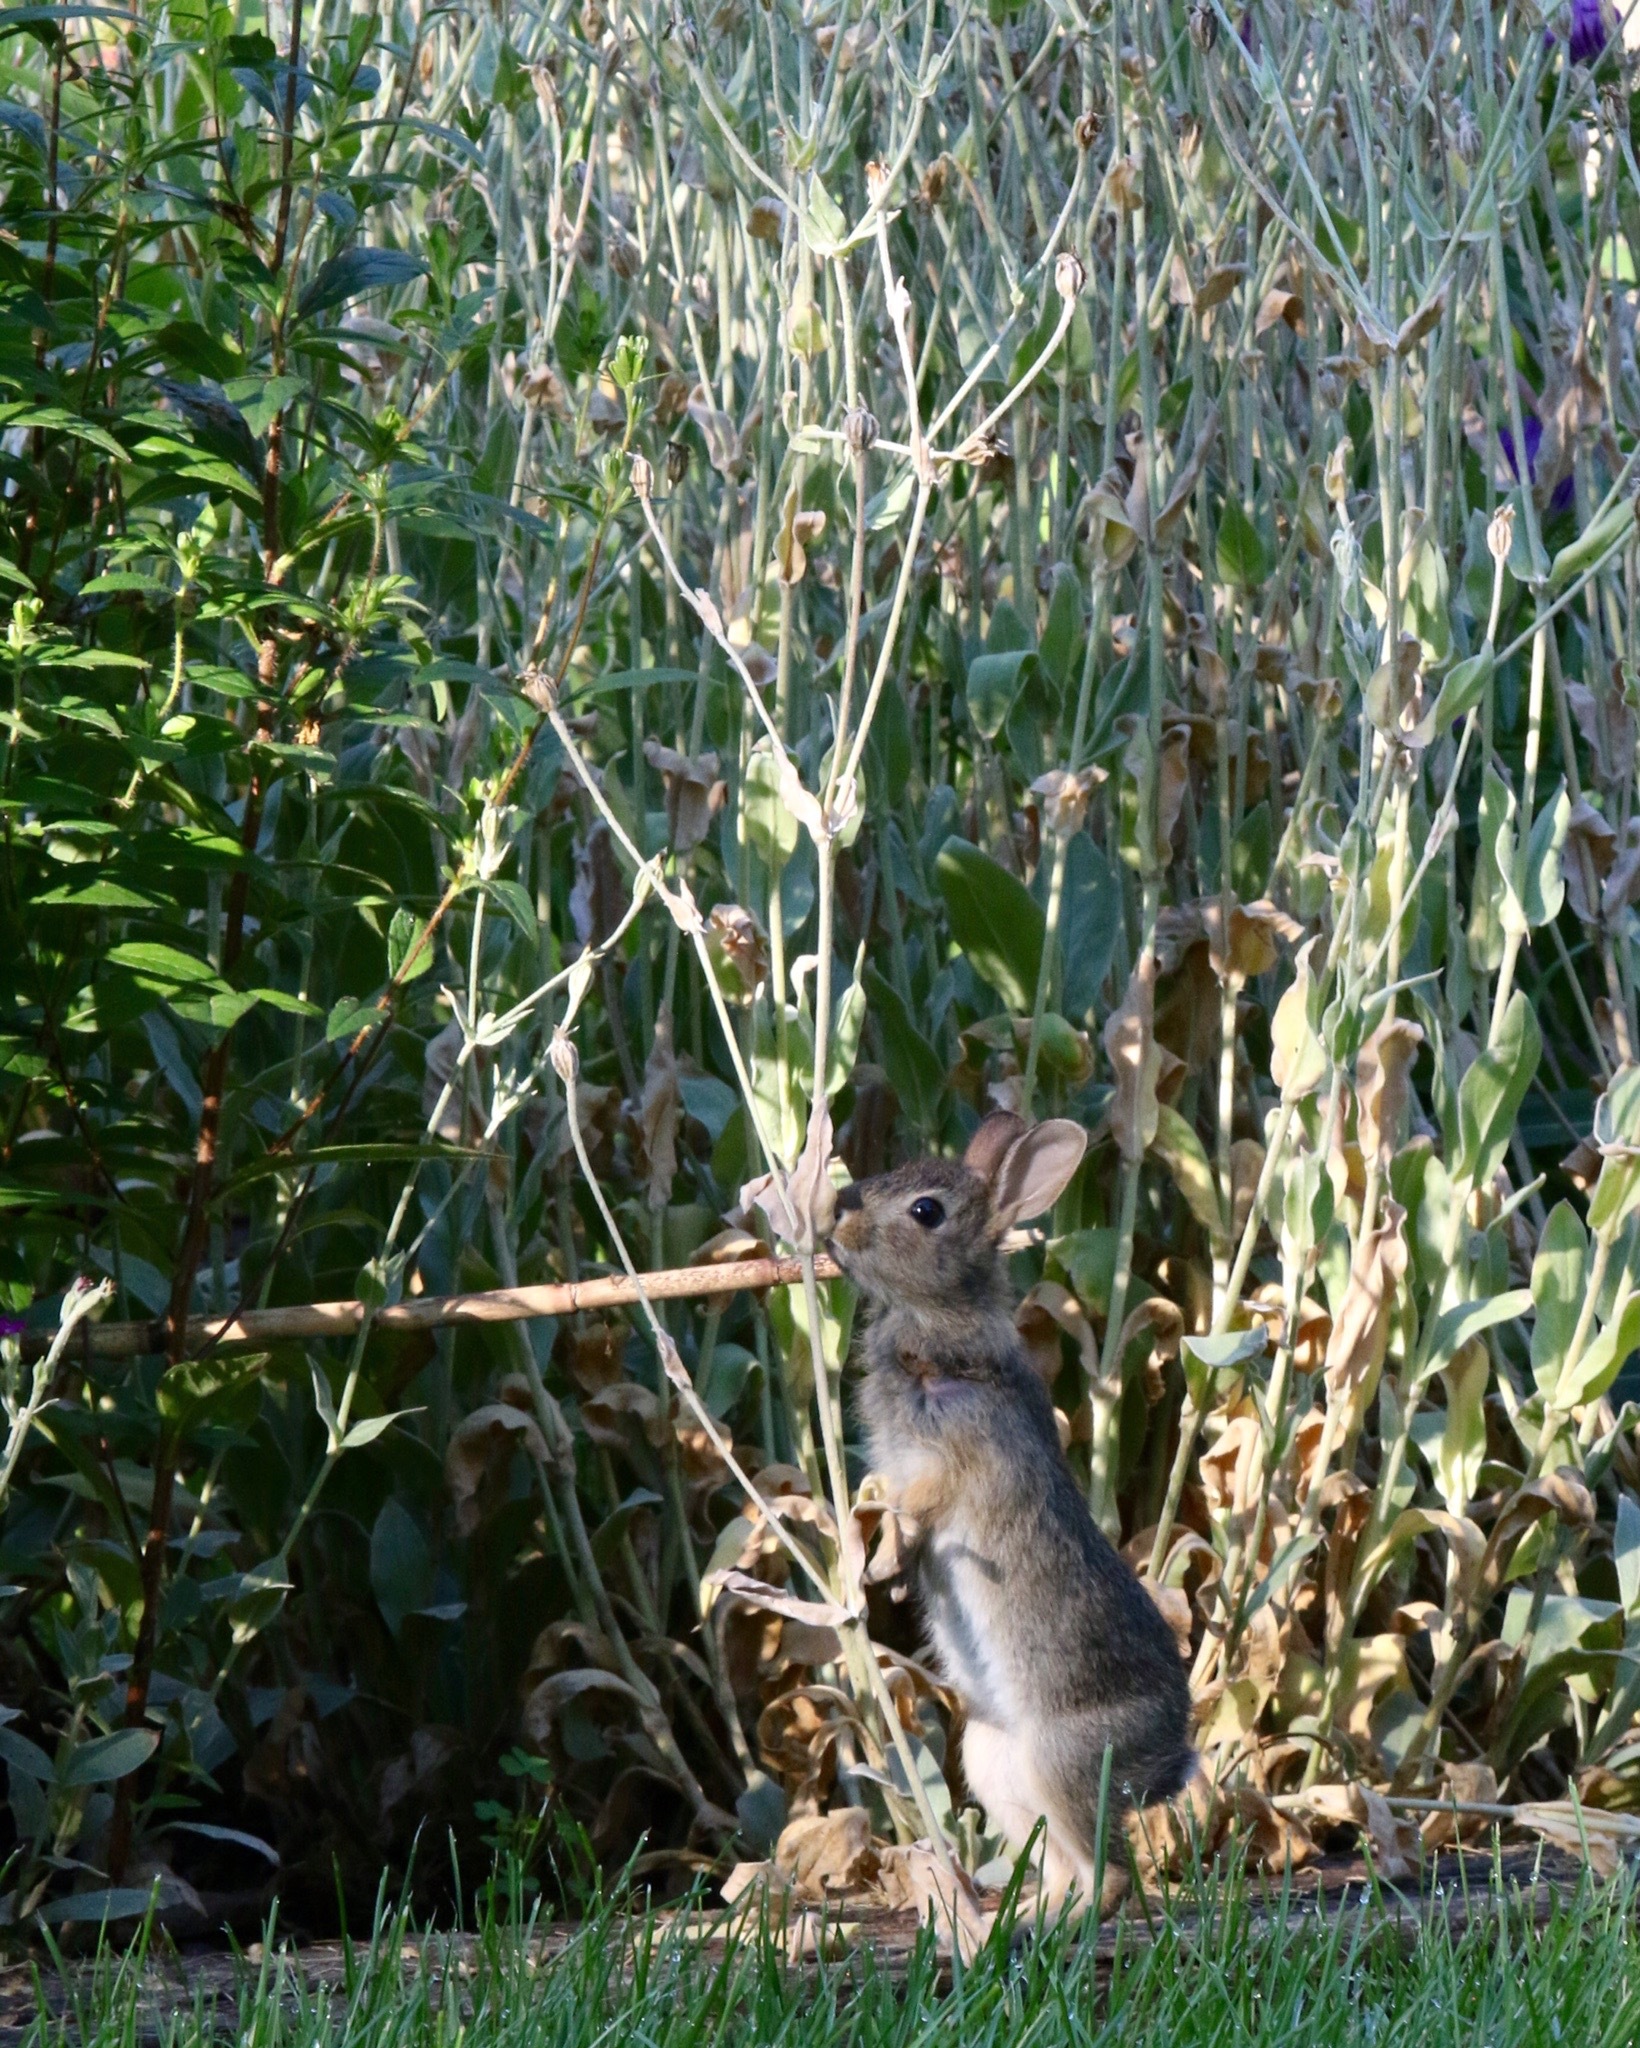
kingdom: Animalia
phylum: Chordata
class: Mammalia
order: Lagomorpha
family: Leporidae
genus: Sylvilagus
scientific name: Sylvilagus floridanus
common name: Eastern cottontail
